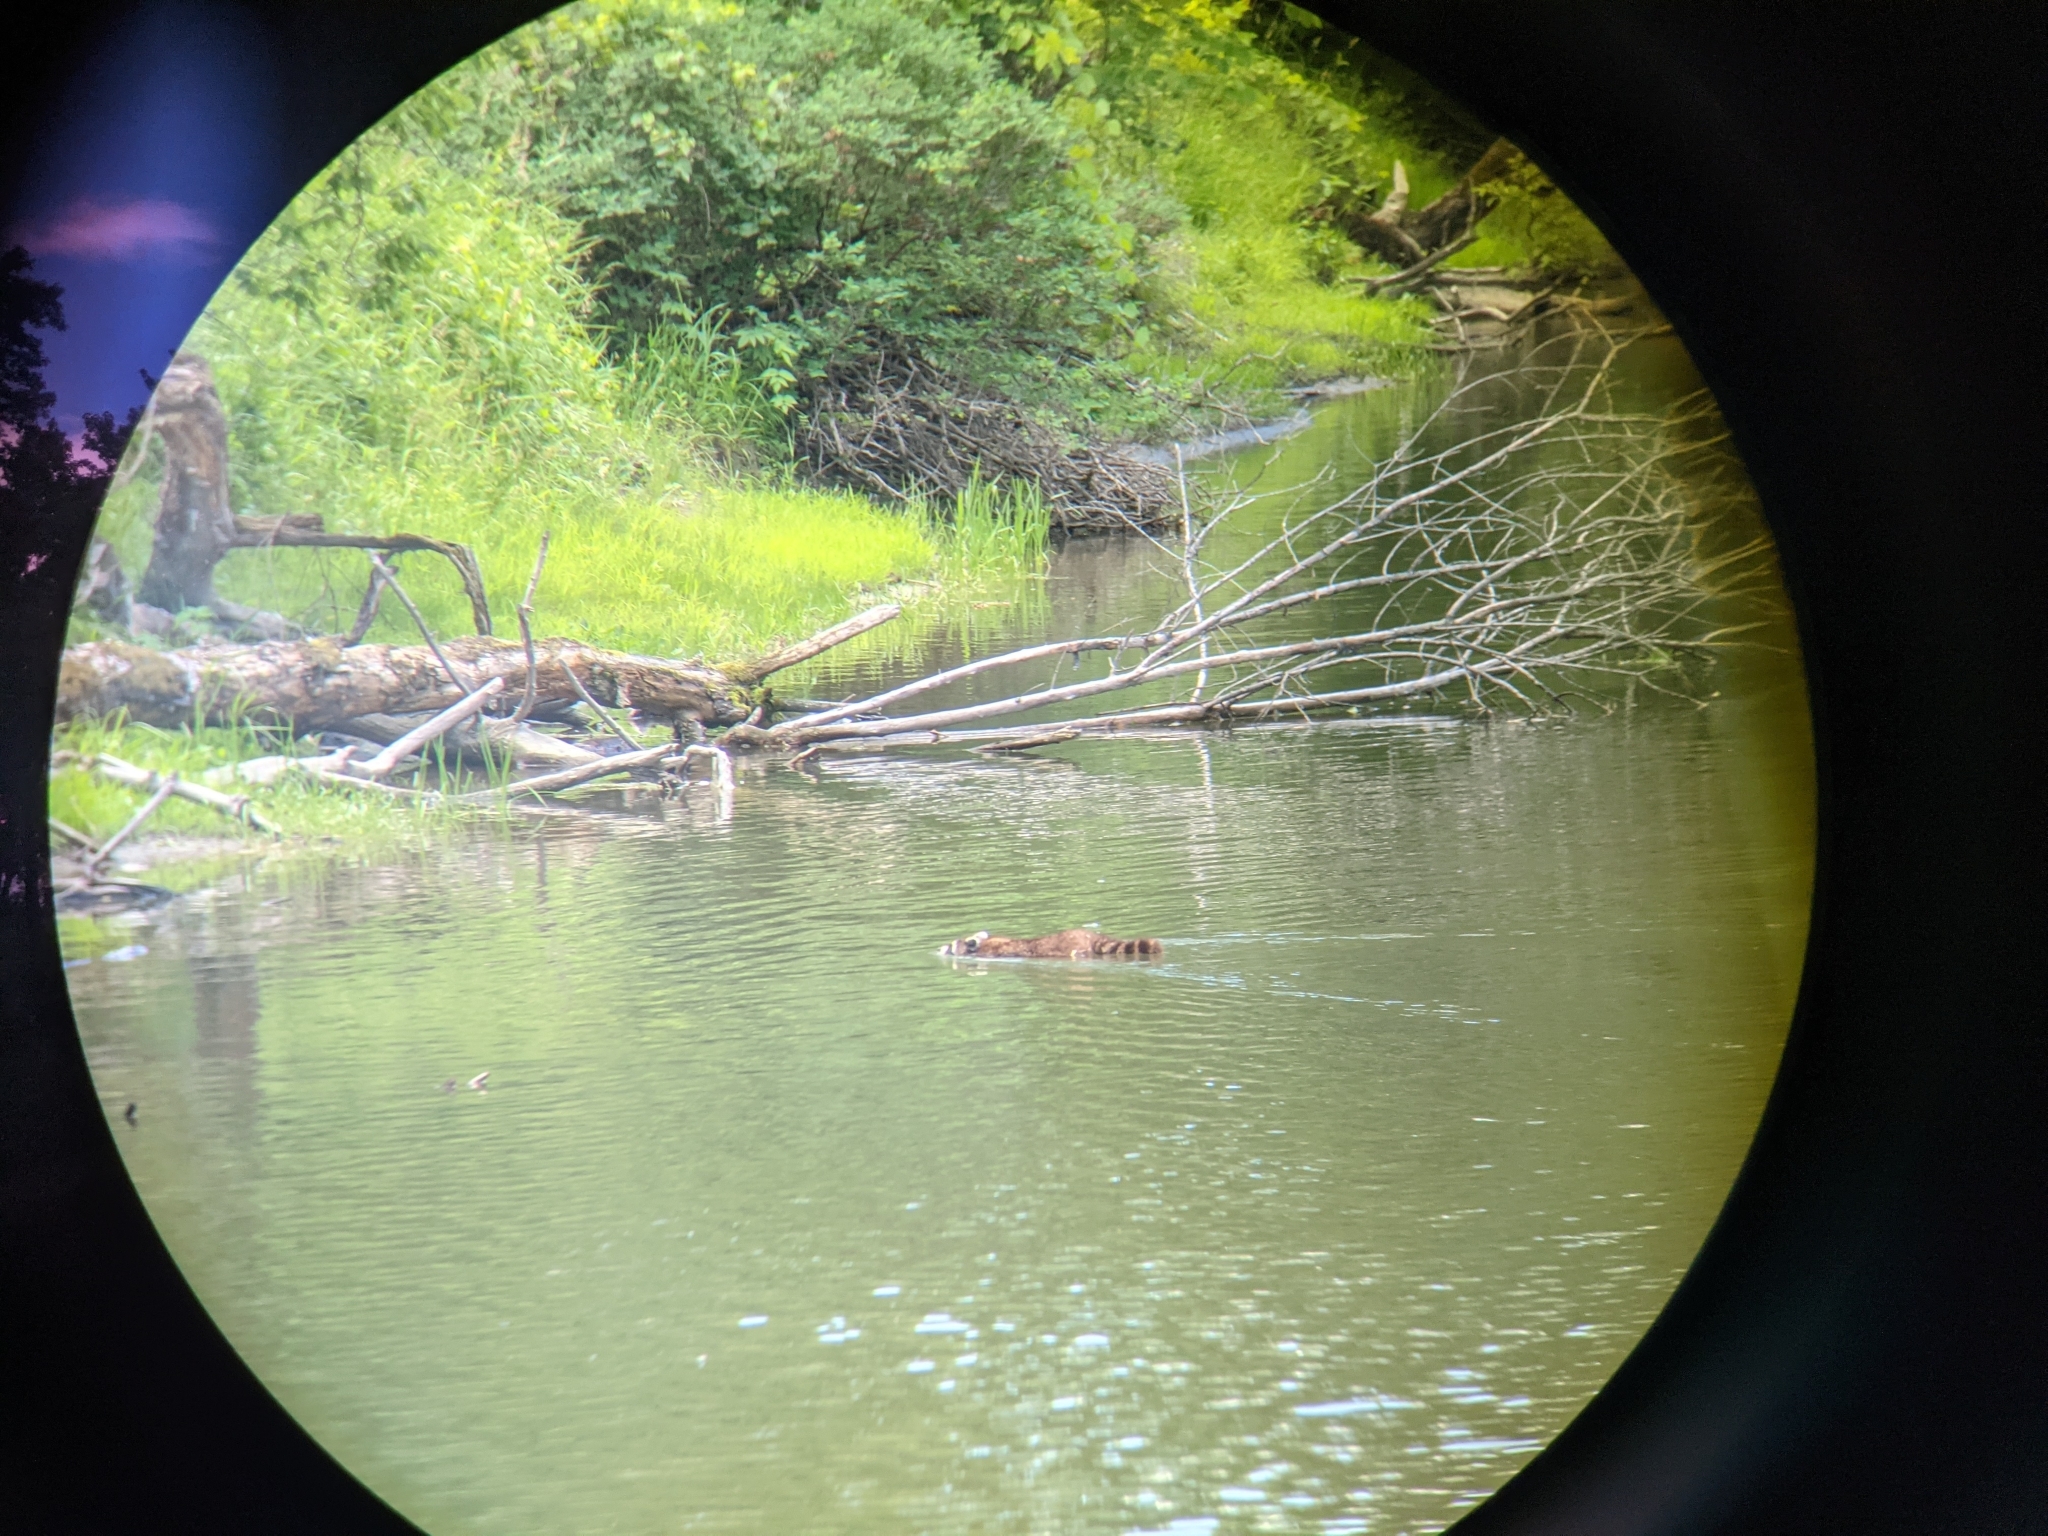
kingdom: Animalia
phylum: Chordata
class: Mammalia
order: Carnivora
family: Procyonidae
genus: Procyon
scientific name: Procyon lotor
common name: Raccoon
